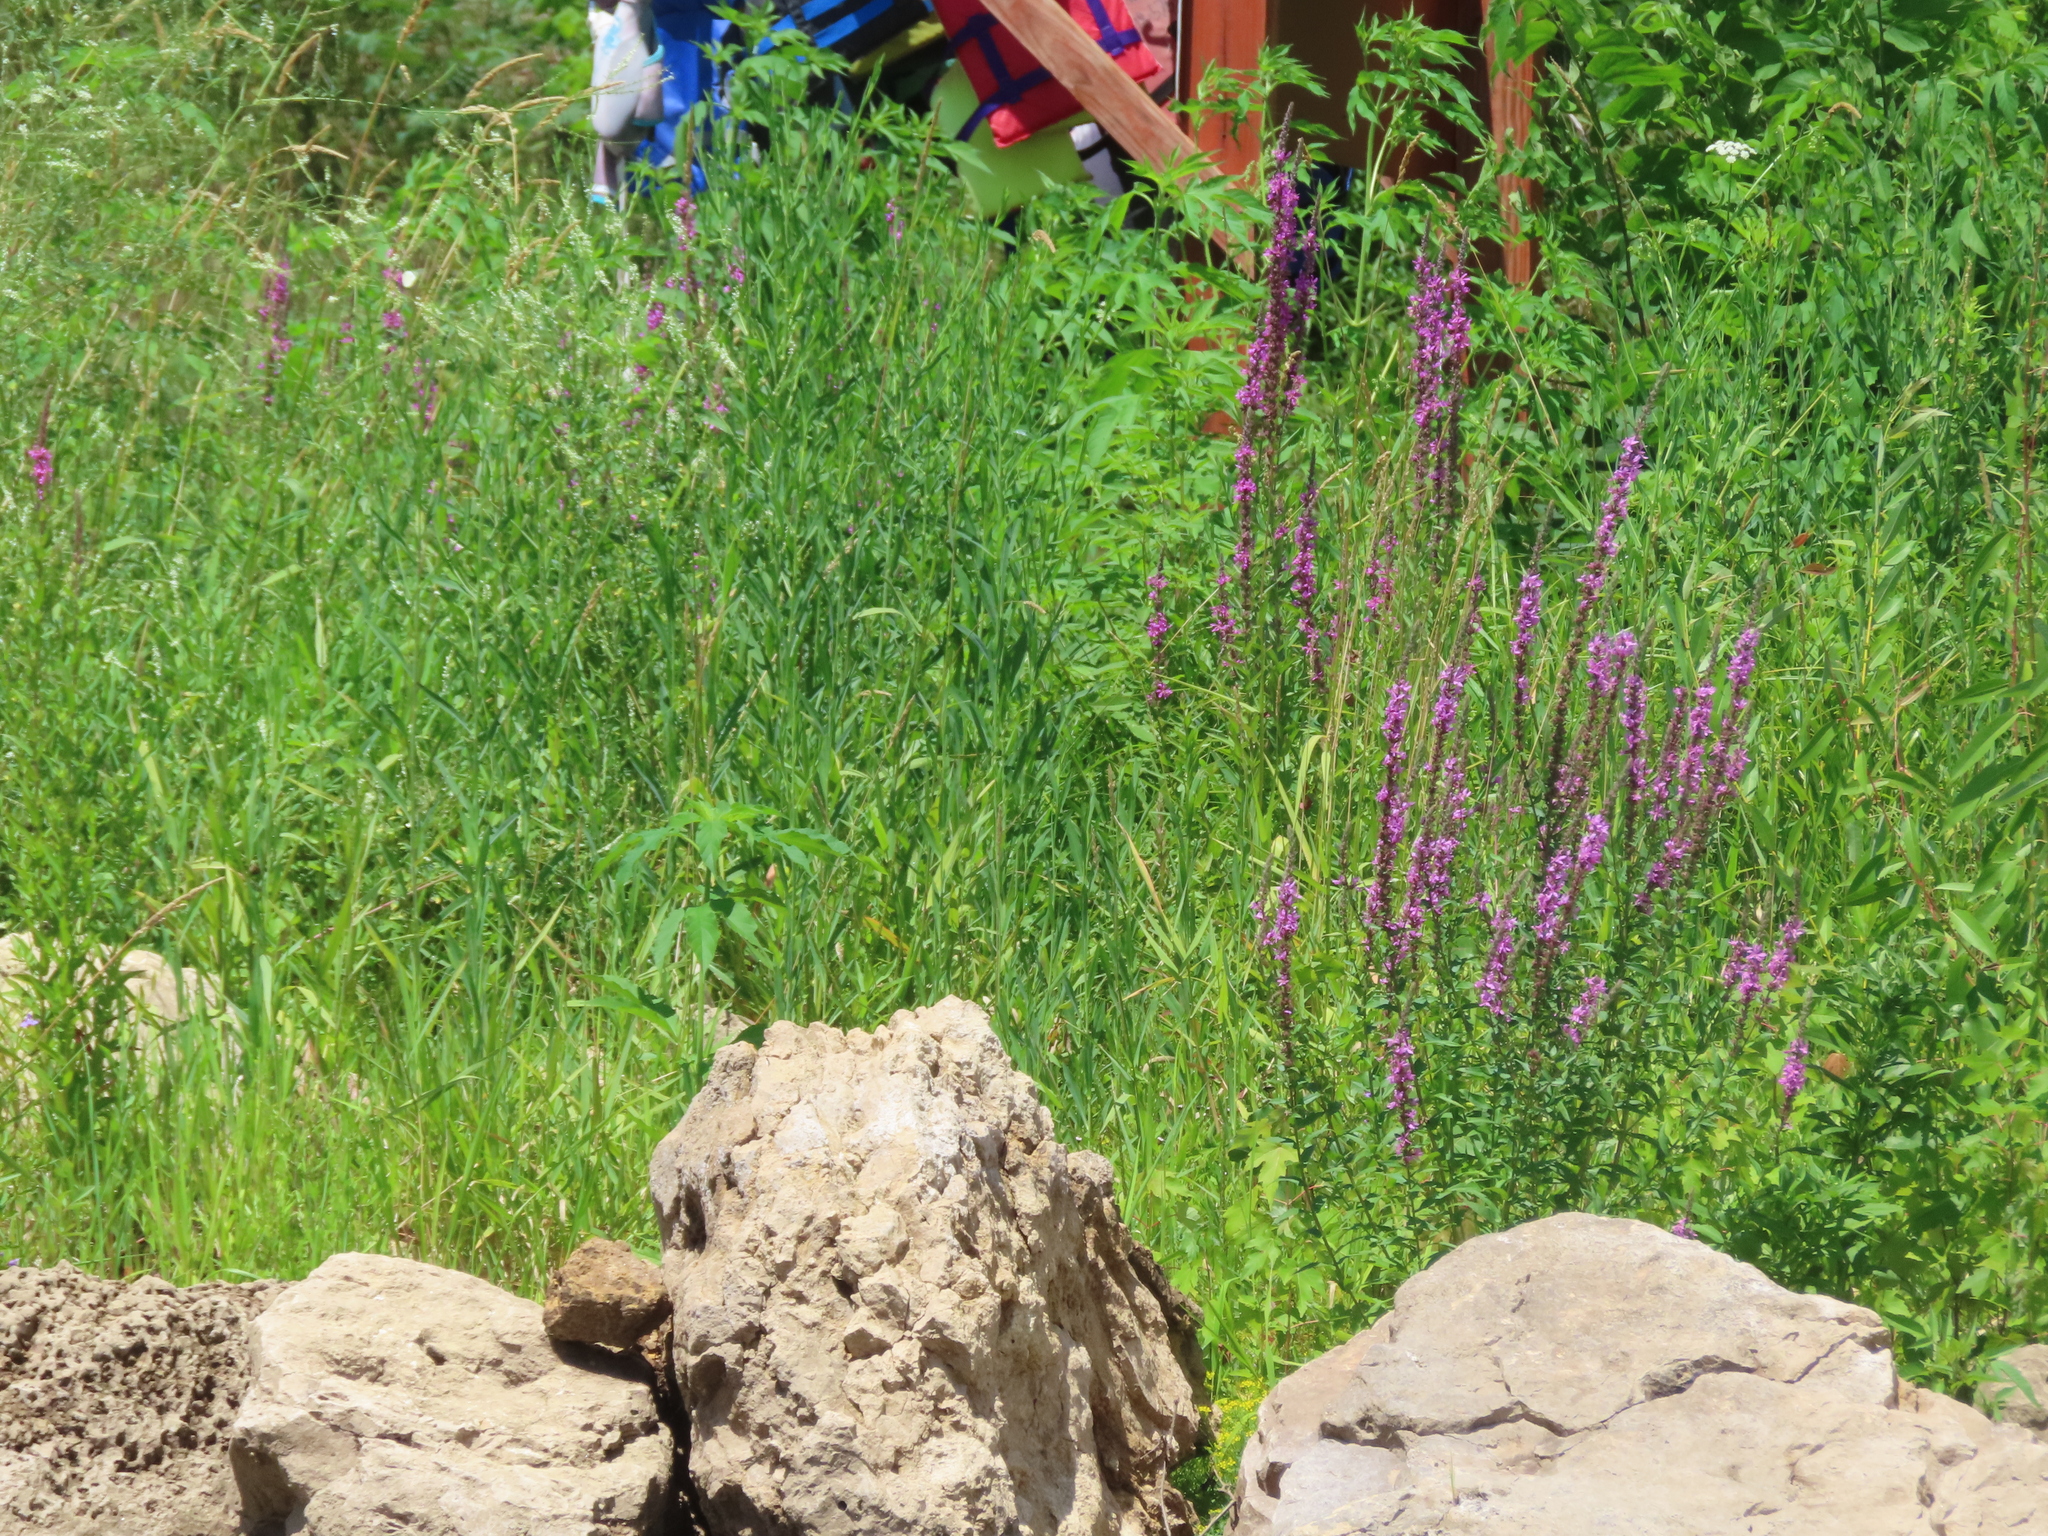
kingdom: Plantae
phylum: Tracheophyta
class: Magnoliopsida
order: Myrtales
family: Lythraceae
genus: Lythrum
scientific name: Lythrum salicaria
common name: Purple loosestrife
